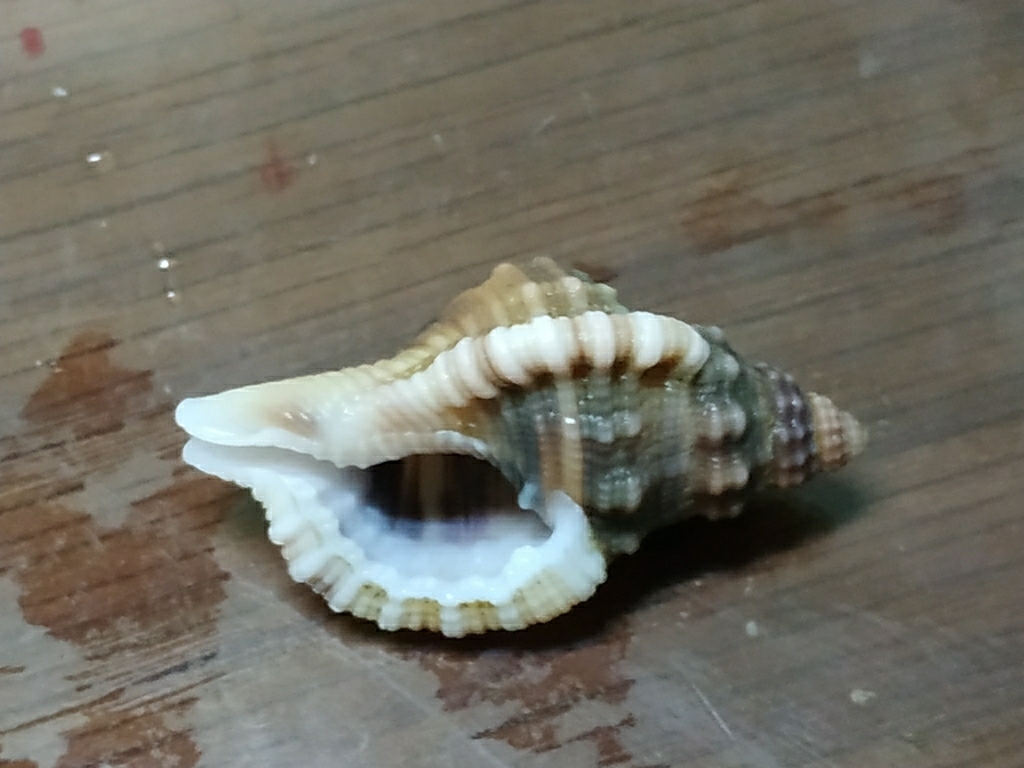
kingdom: Animalia
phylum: Mollusca
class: Gastropoda
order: Littorinimorpha
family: Cymatiidae
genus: Monoplex
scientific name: Monoplex gemmatus
